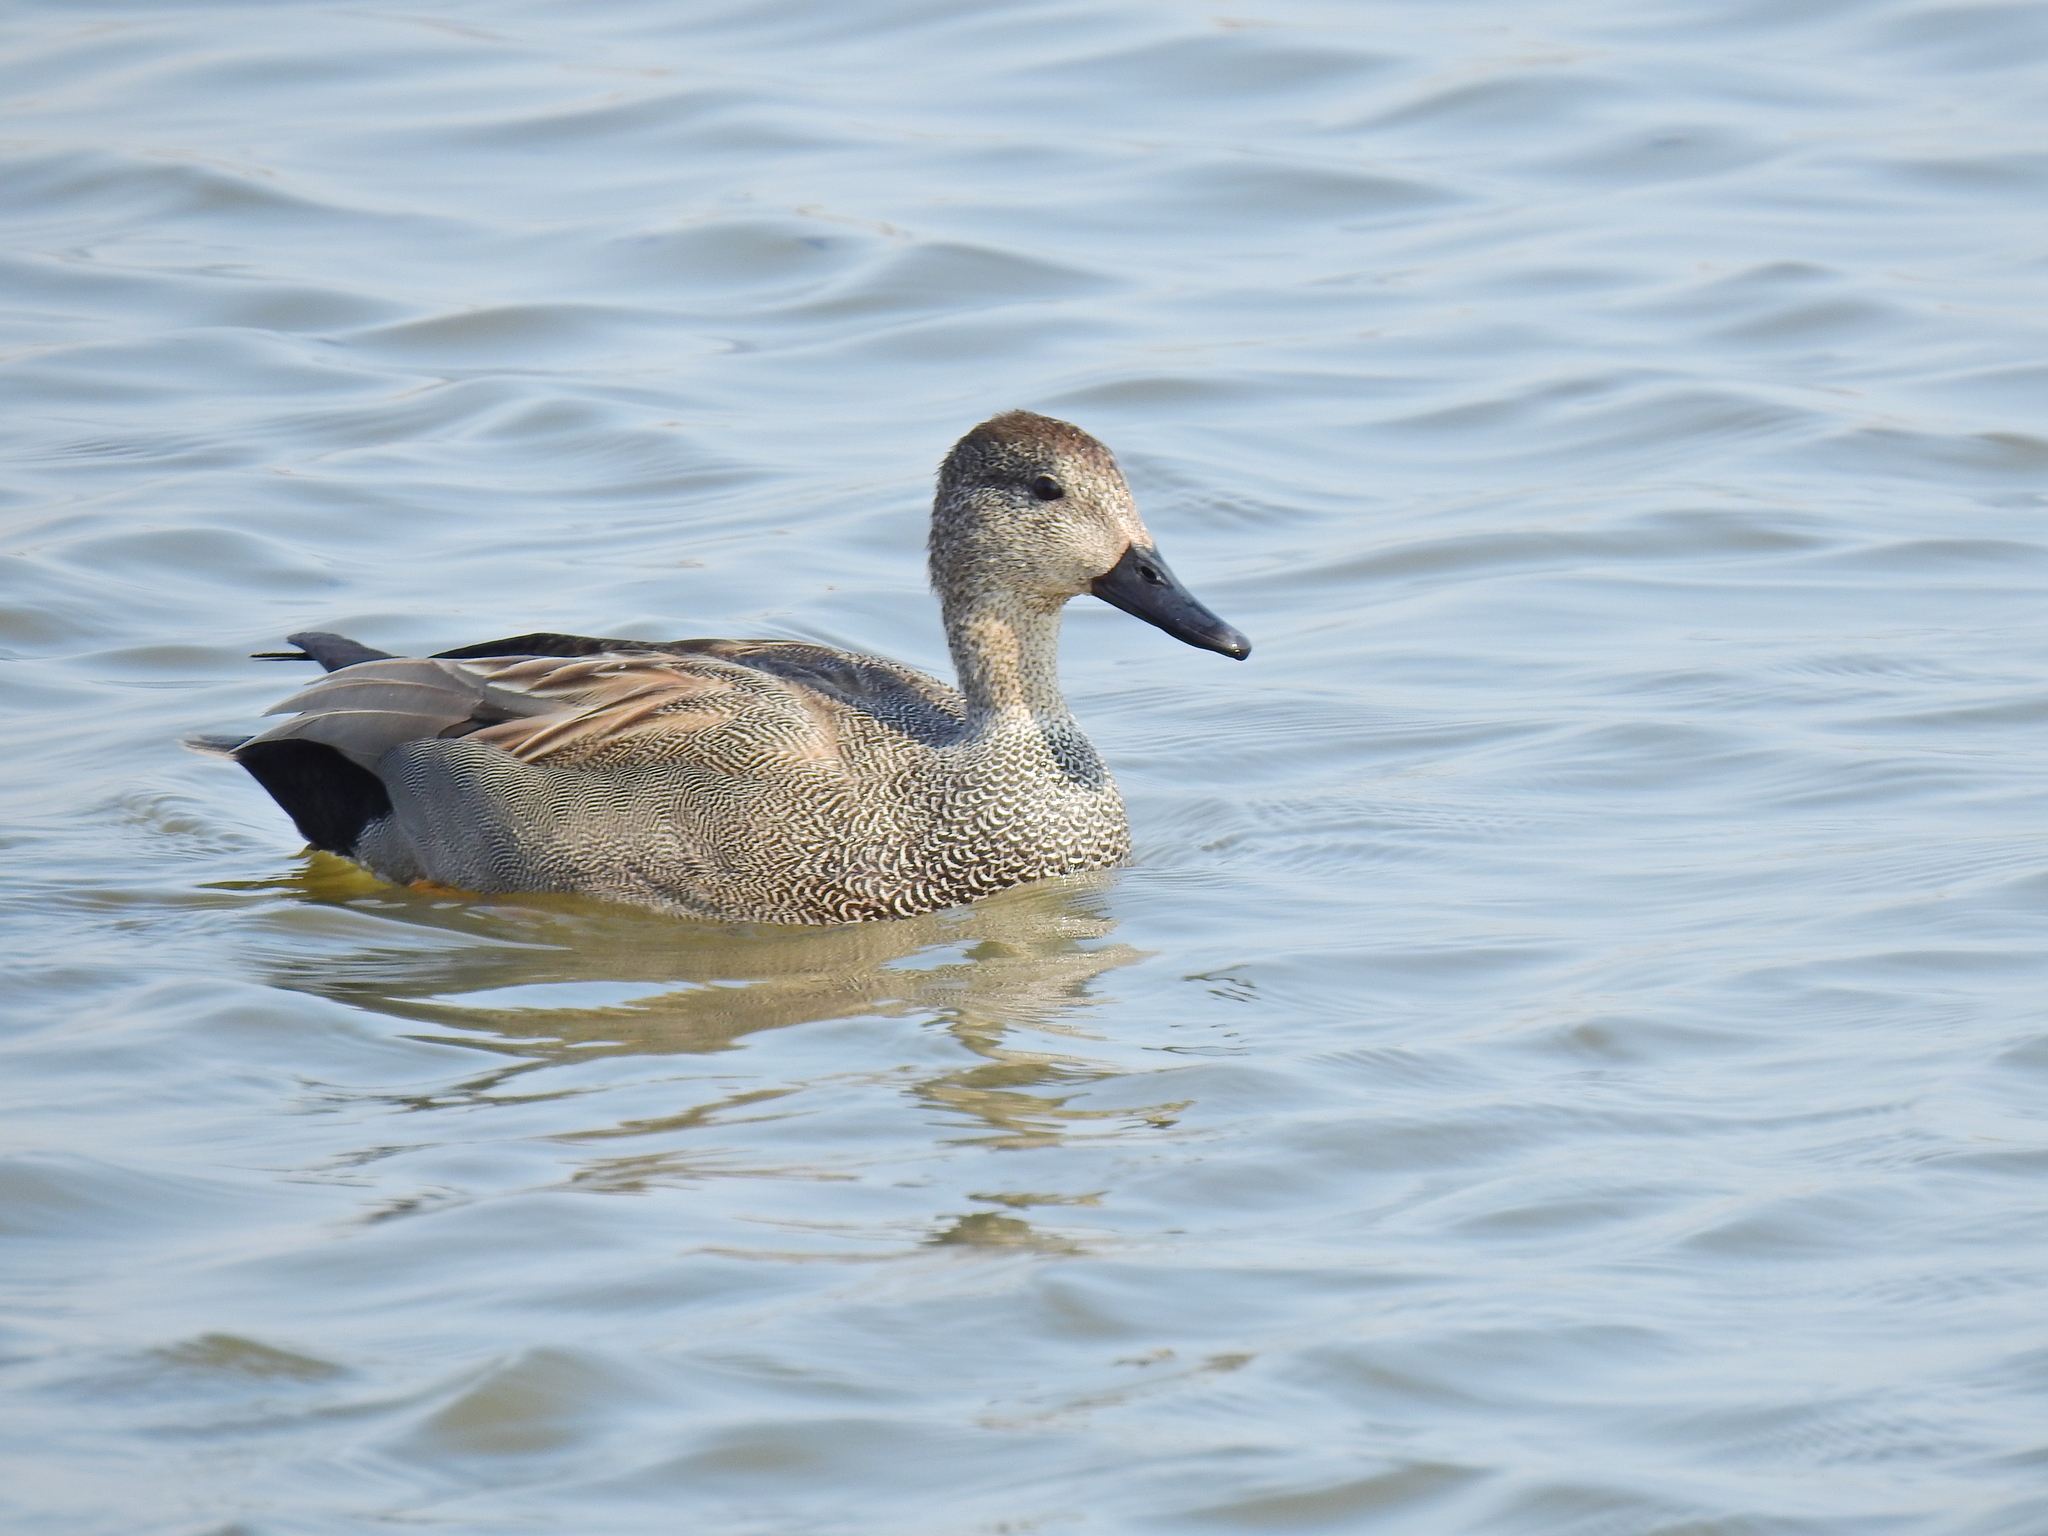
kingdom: Animalia
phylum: Chordata
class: Aves
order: Anseriformes
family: Anatidae
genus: Mareca
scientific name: Mareca strepera
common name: Gadwall
